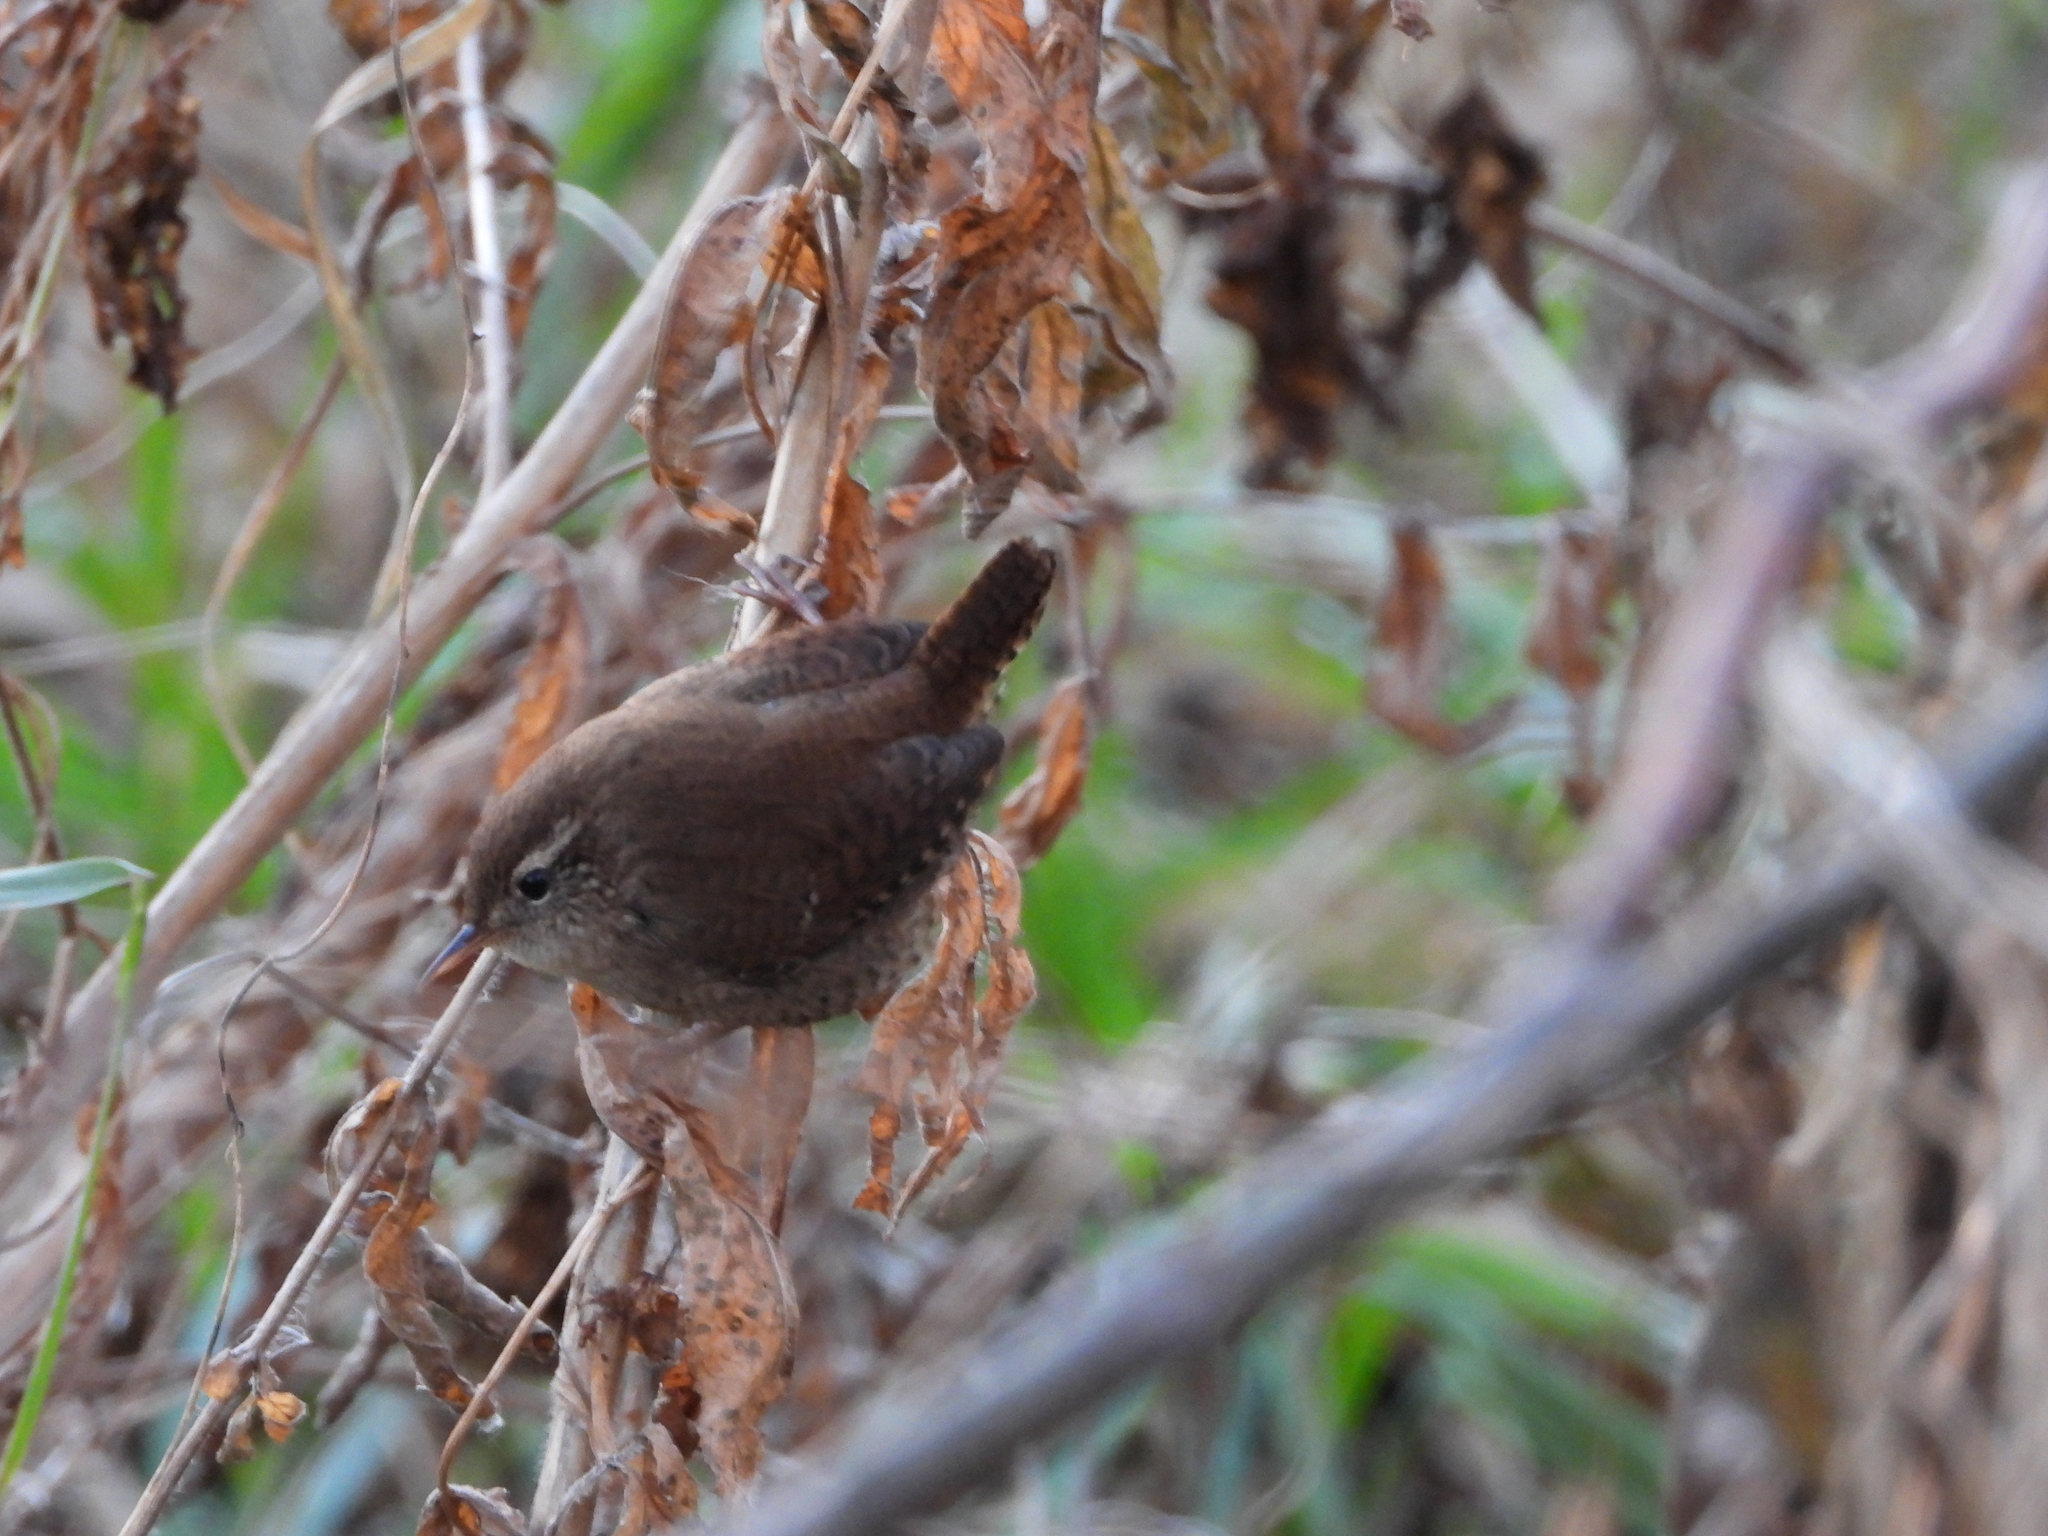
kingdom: Animalia
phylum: Chordata
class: Aves
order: Passeriformes
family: Troglodytidae
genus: Troglodytes
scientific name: Troglodytes troglodytes
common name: Eurasian wren
